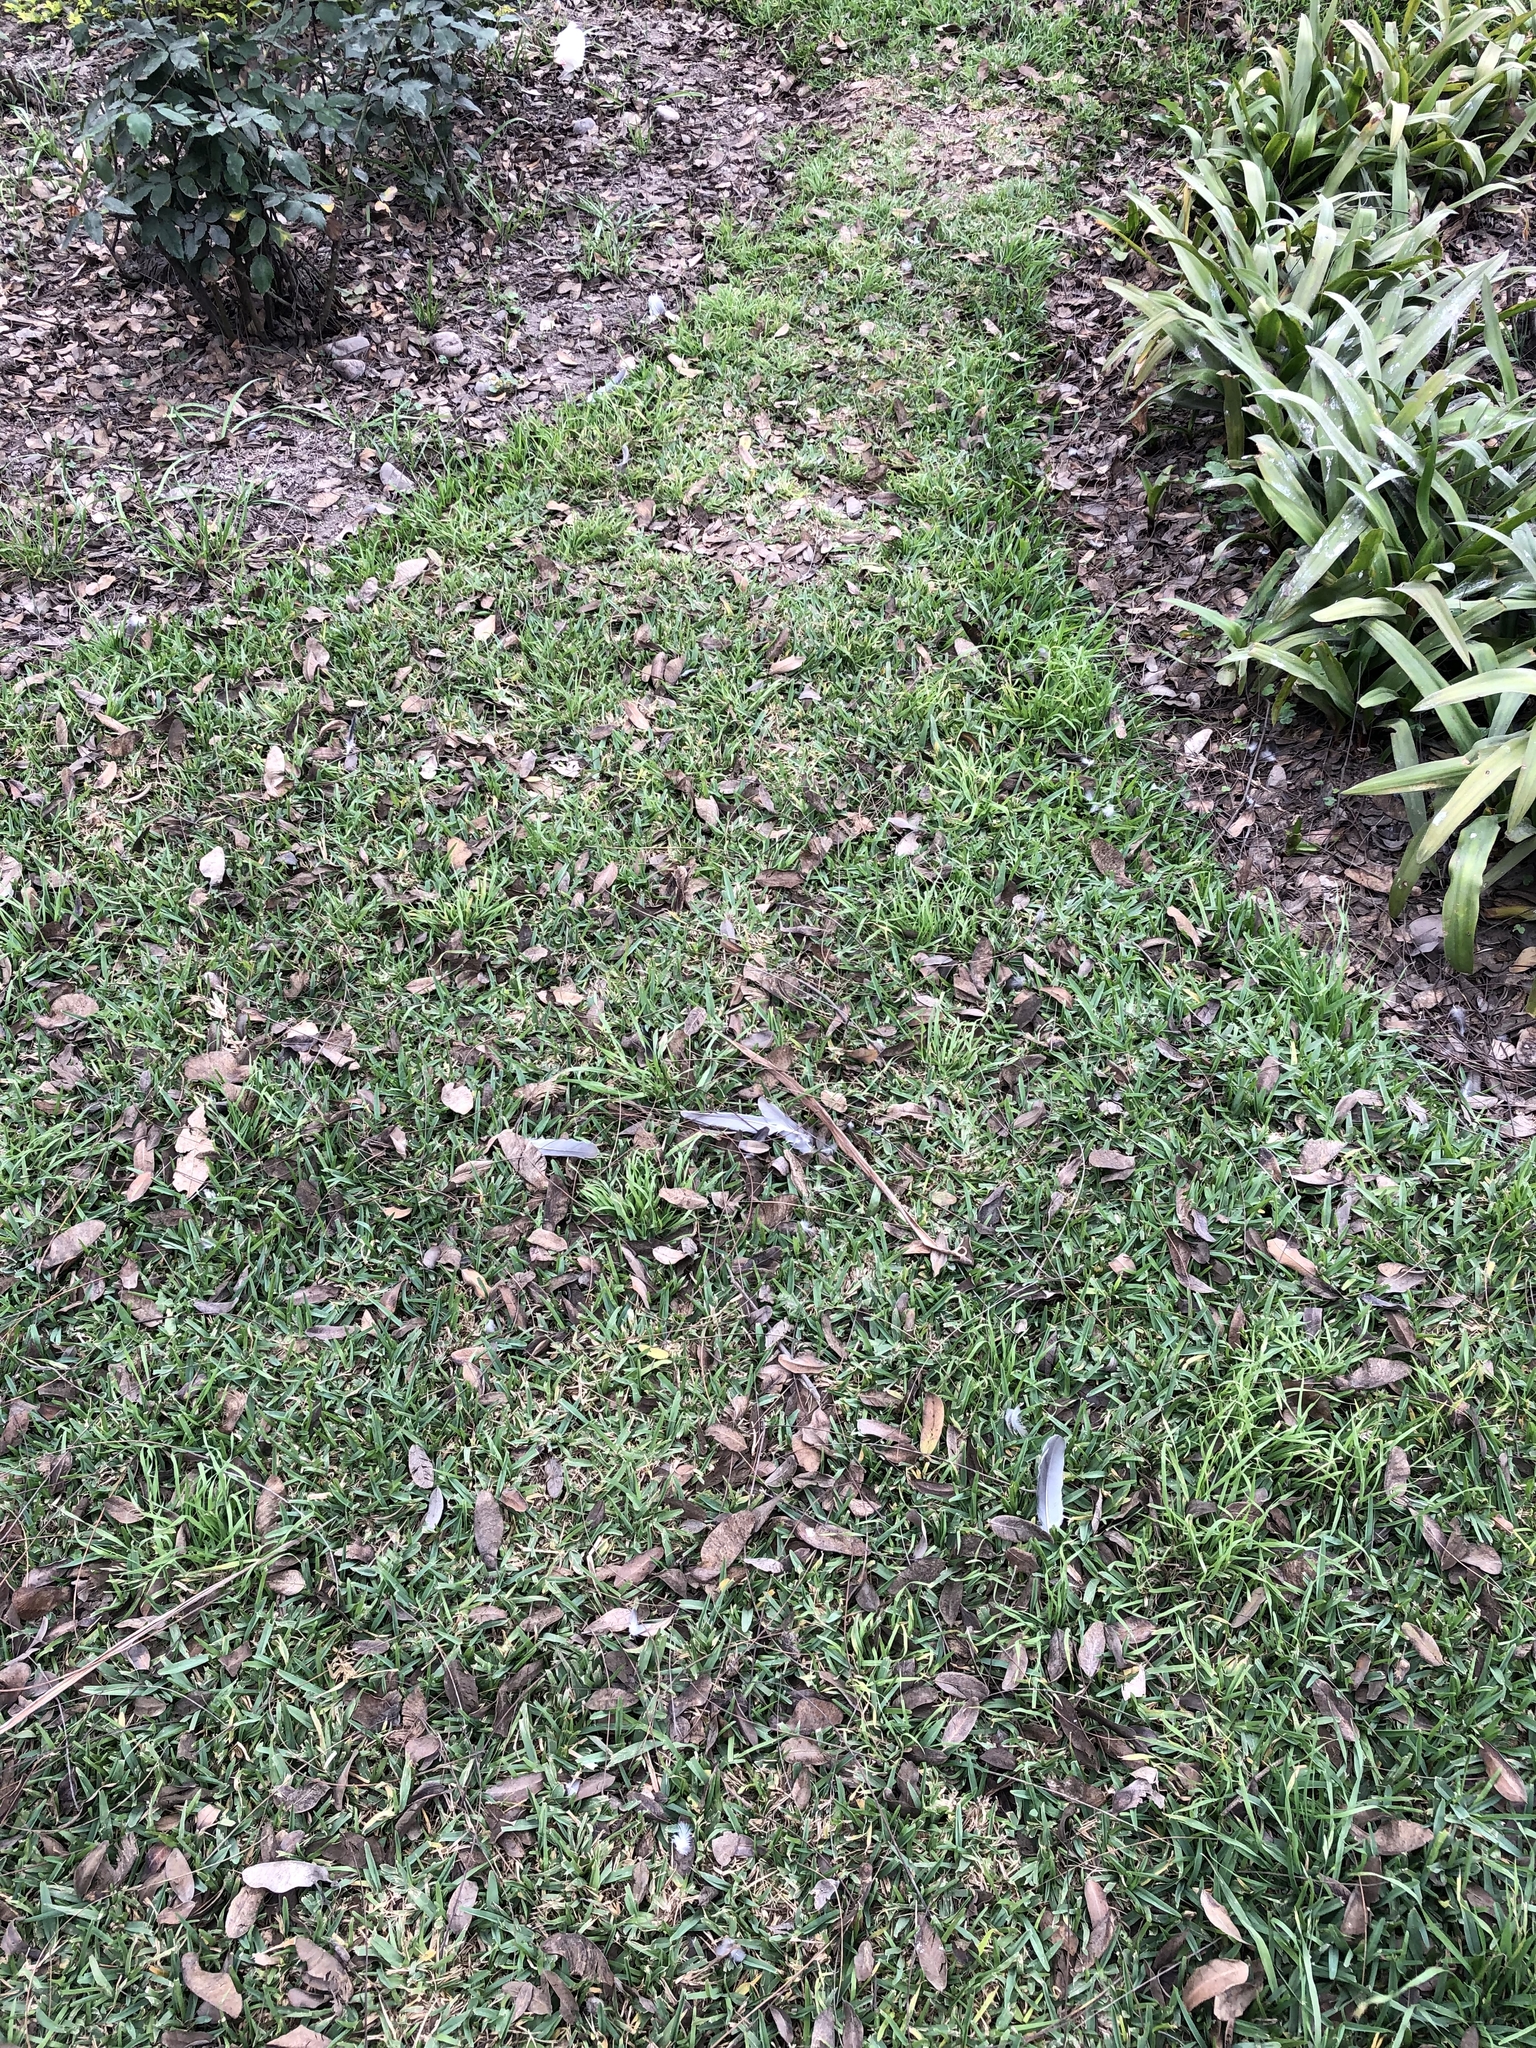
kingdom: Animalia
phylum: Chordata
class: Aves
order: Columbiformes
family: Columbidae
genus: Zenaida
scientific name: Zenaida meloda
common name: West peruvian dove
